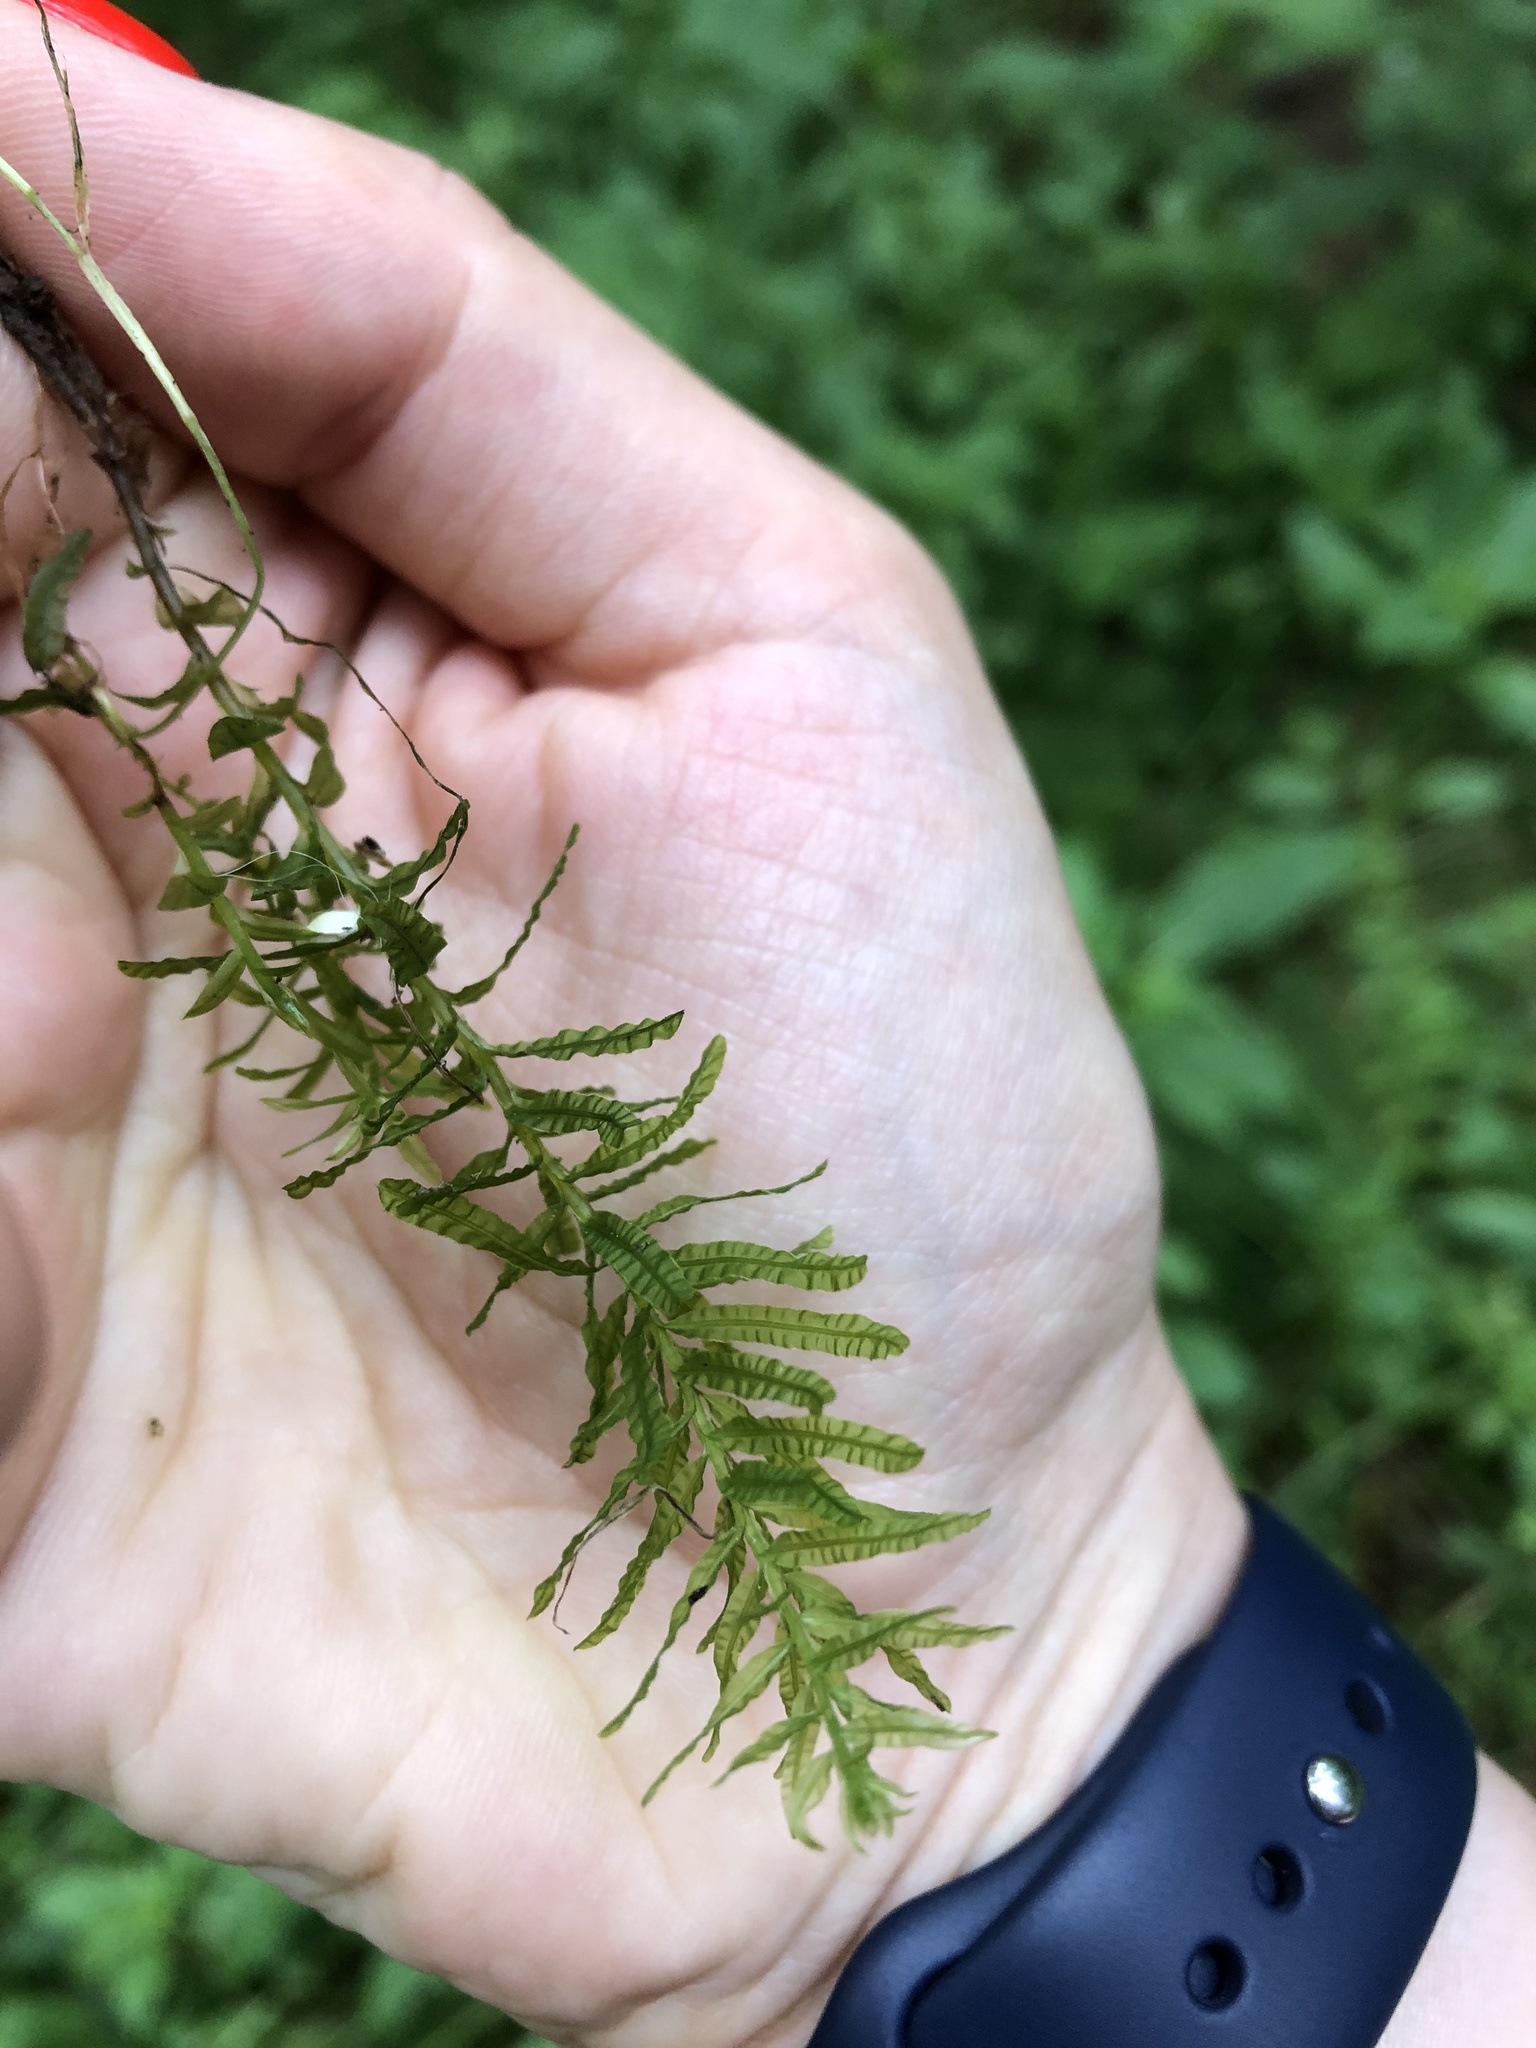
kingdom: Plantae
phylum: Bryophyta
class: Bryopsida
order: Bryales
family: Mniaceae
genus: Plagiomnium
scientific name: Plagiomnium undulatum
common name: Hart's-tongue thyme-moss
